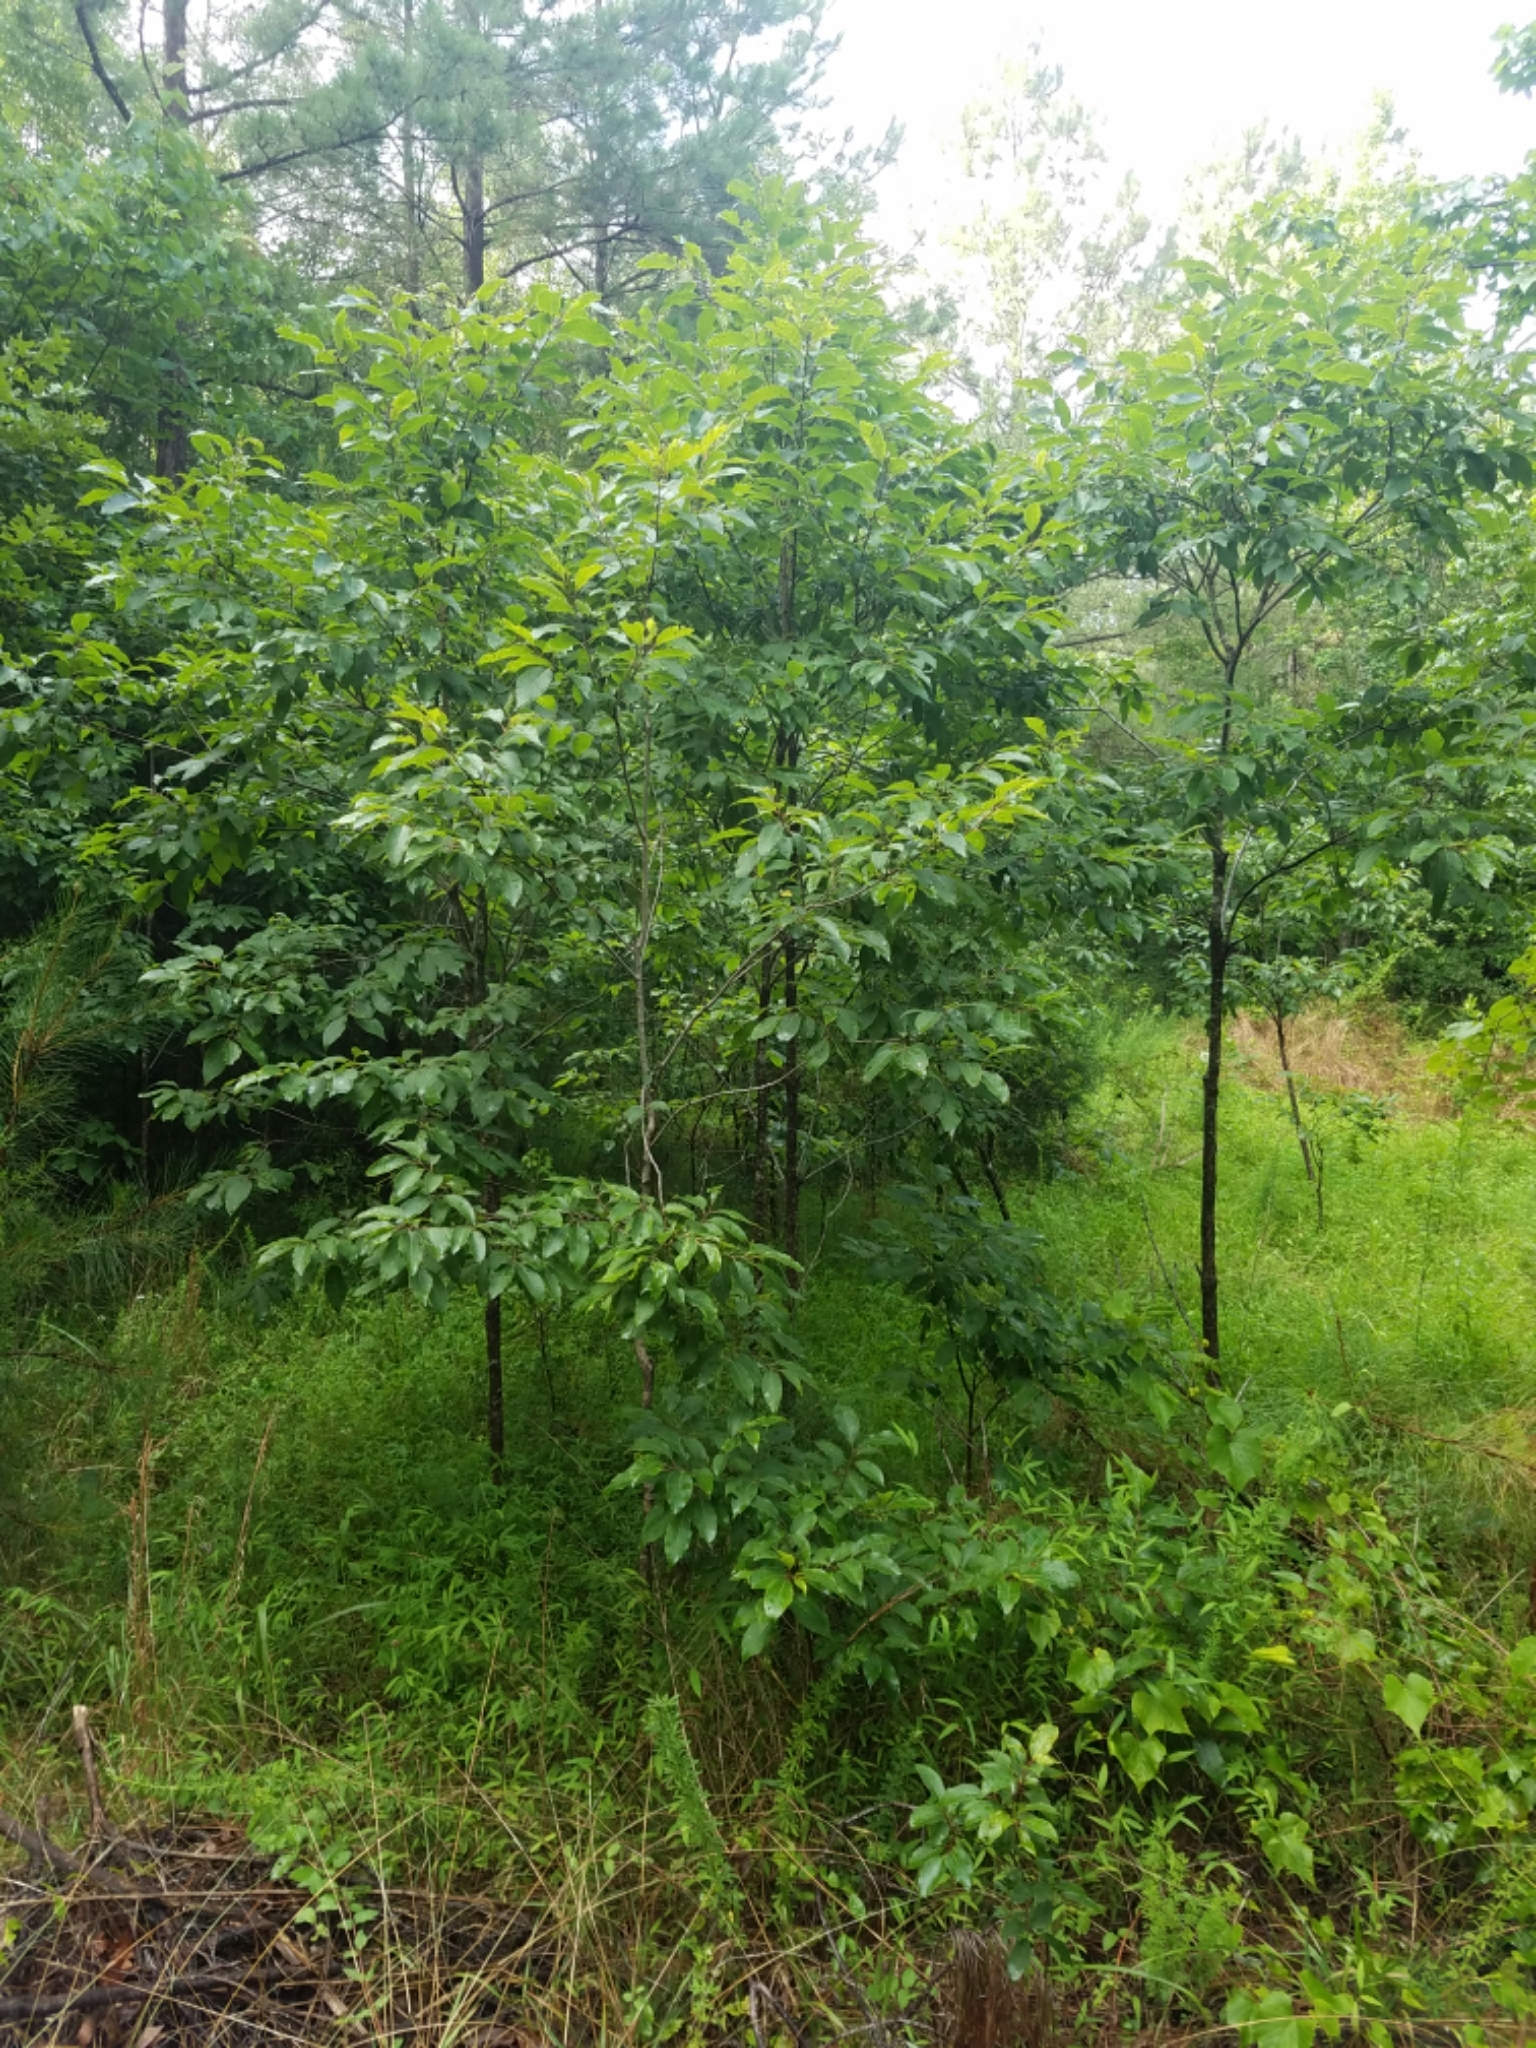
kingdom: Plantae
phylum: Tracheophyta
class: Magnoliopsida
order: Ericales
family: Ebenaceae
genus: Diospyros
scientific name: Diospyros virginiana
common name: Persimmon
